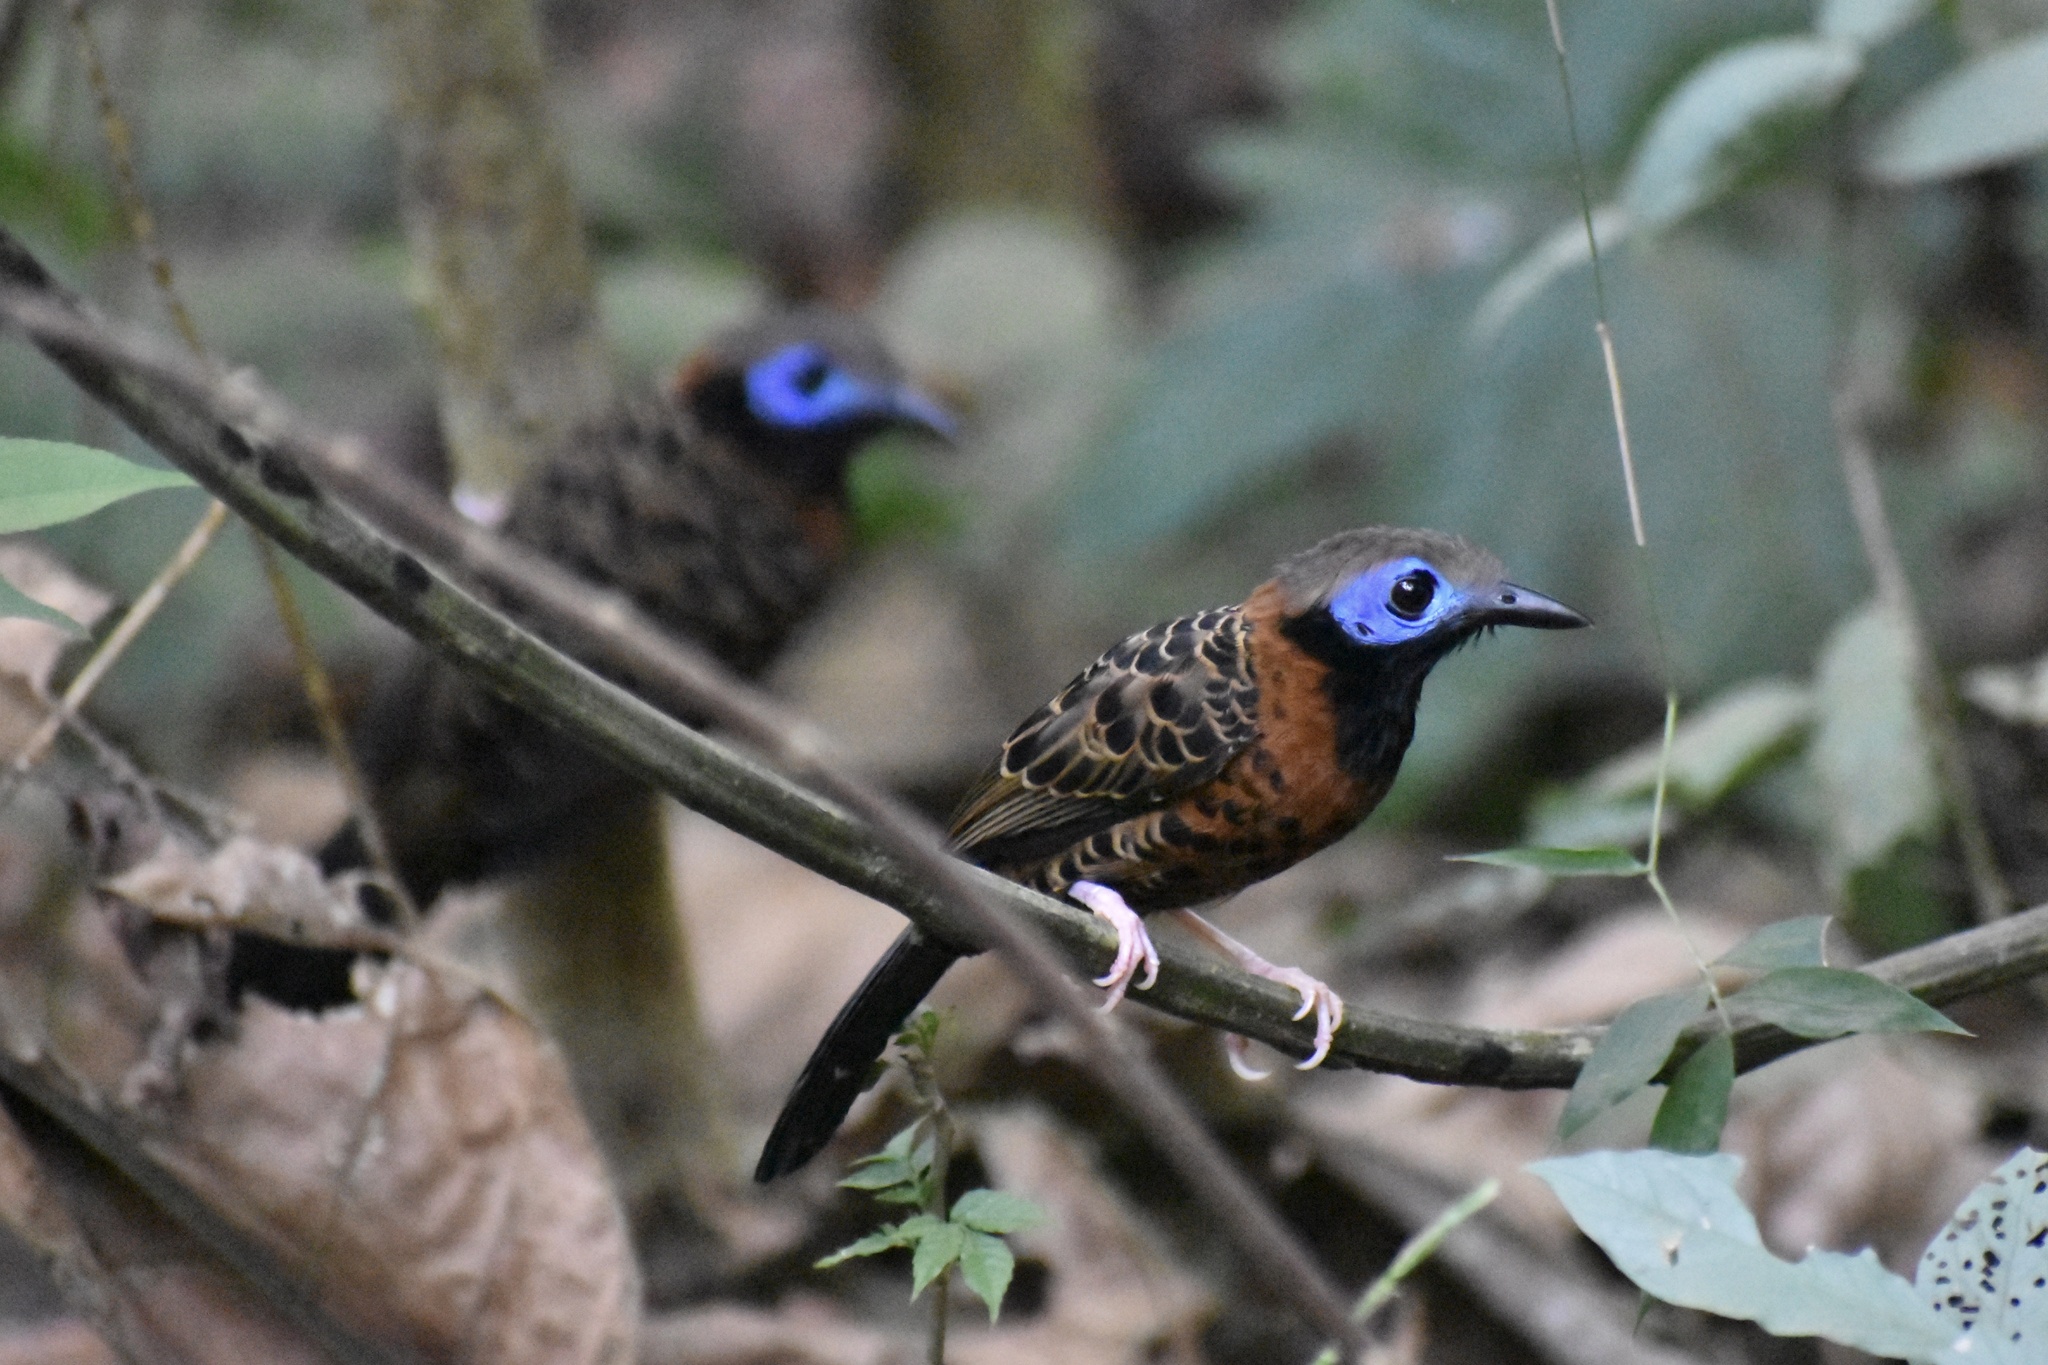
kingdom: Animalia
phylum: Chordata
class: Aves
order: Passeriformes
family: Thamnophilidae
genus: Phaenostictus
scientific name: Phaenostictus mcleannani
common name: Ocellated antbird
